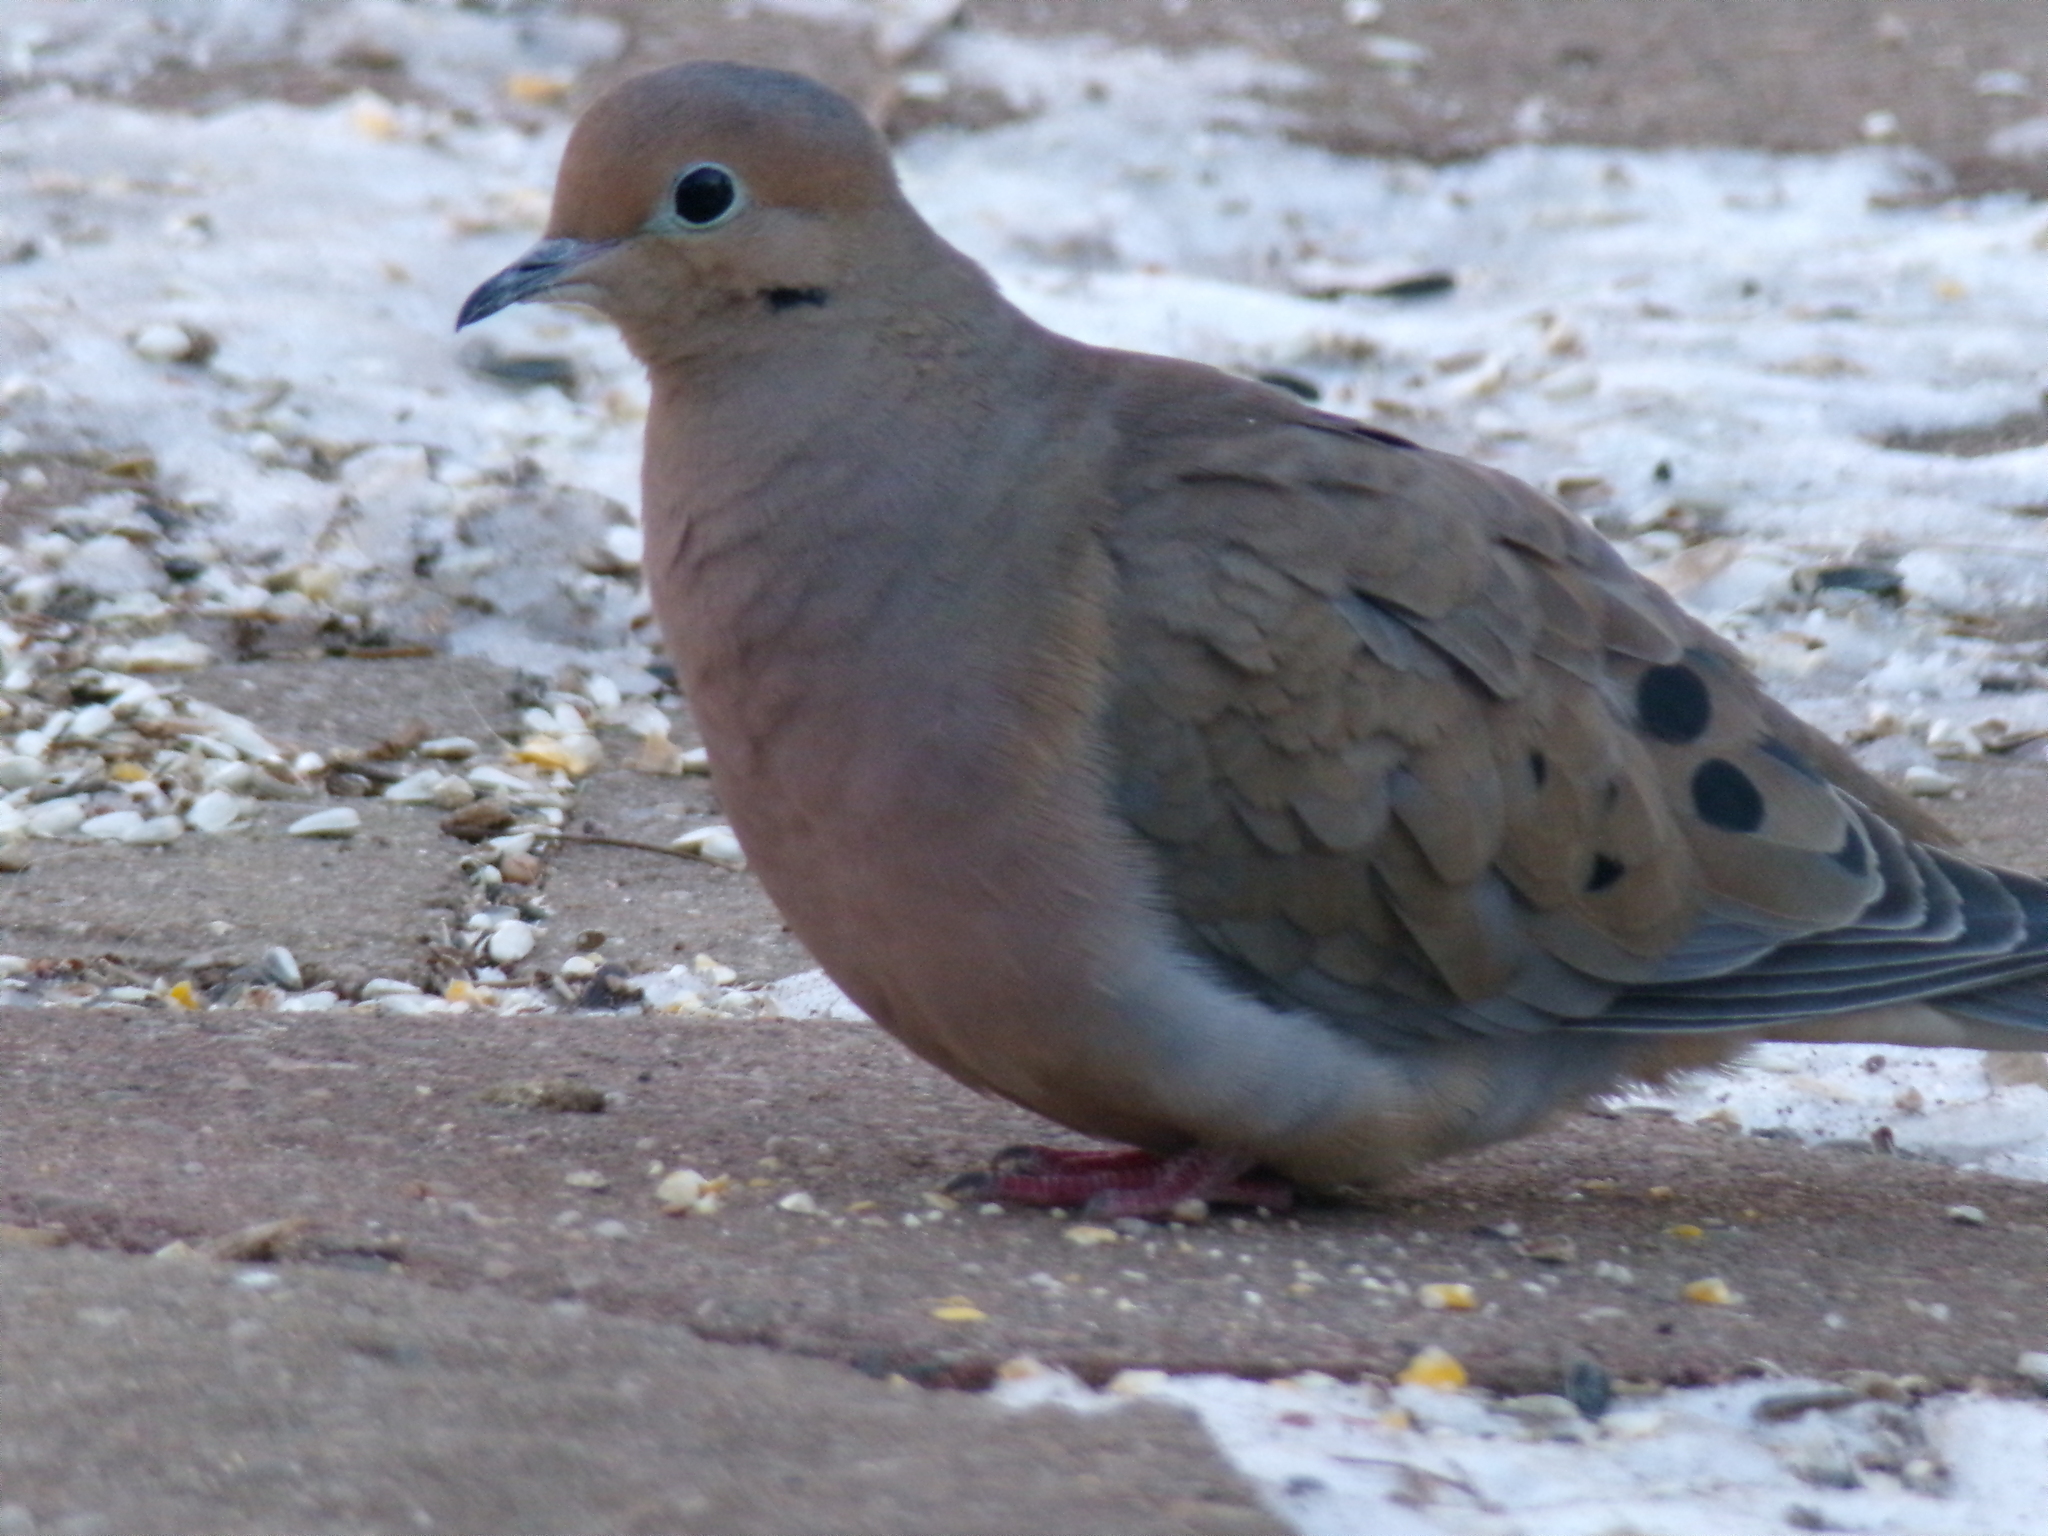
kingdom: Animalia
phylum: Chordata
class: Aves
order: Columbiformes
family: Columbidae
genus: Zenaida
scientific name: Zenaida macroura
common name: Mourning dove
